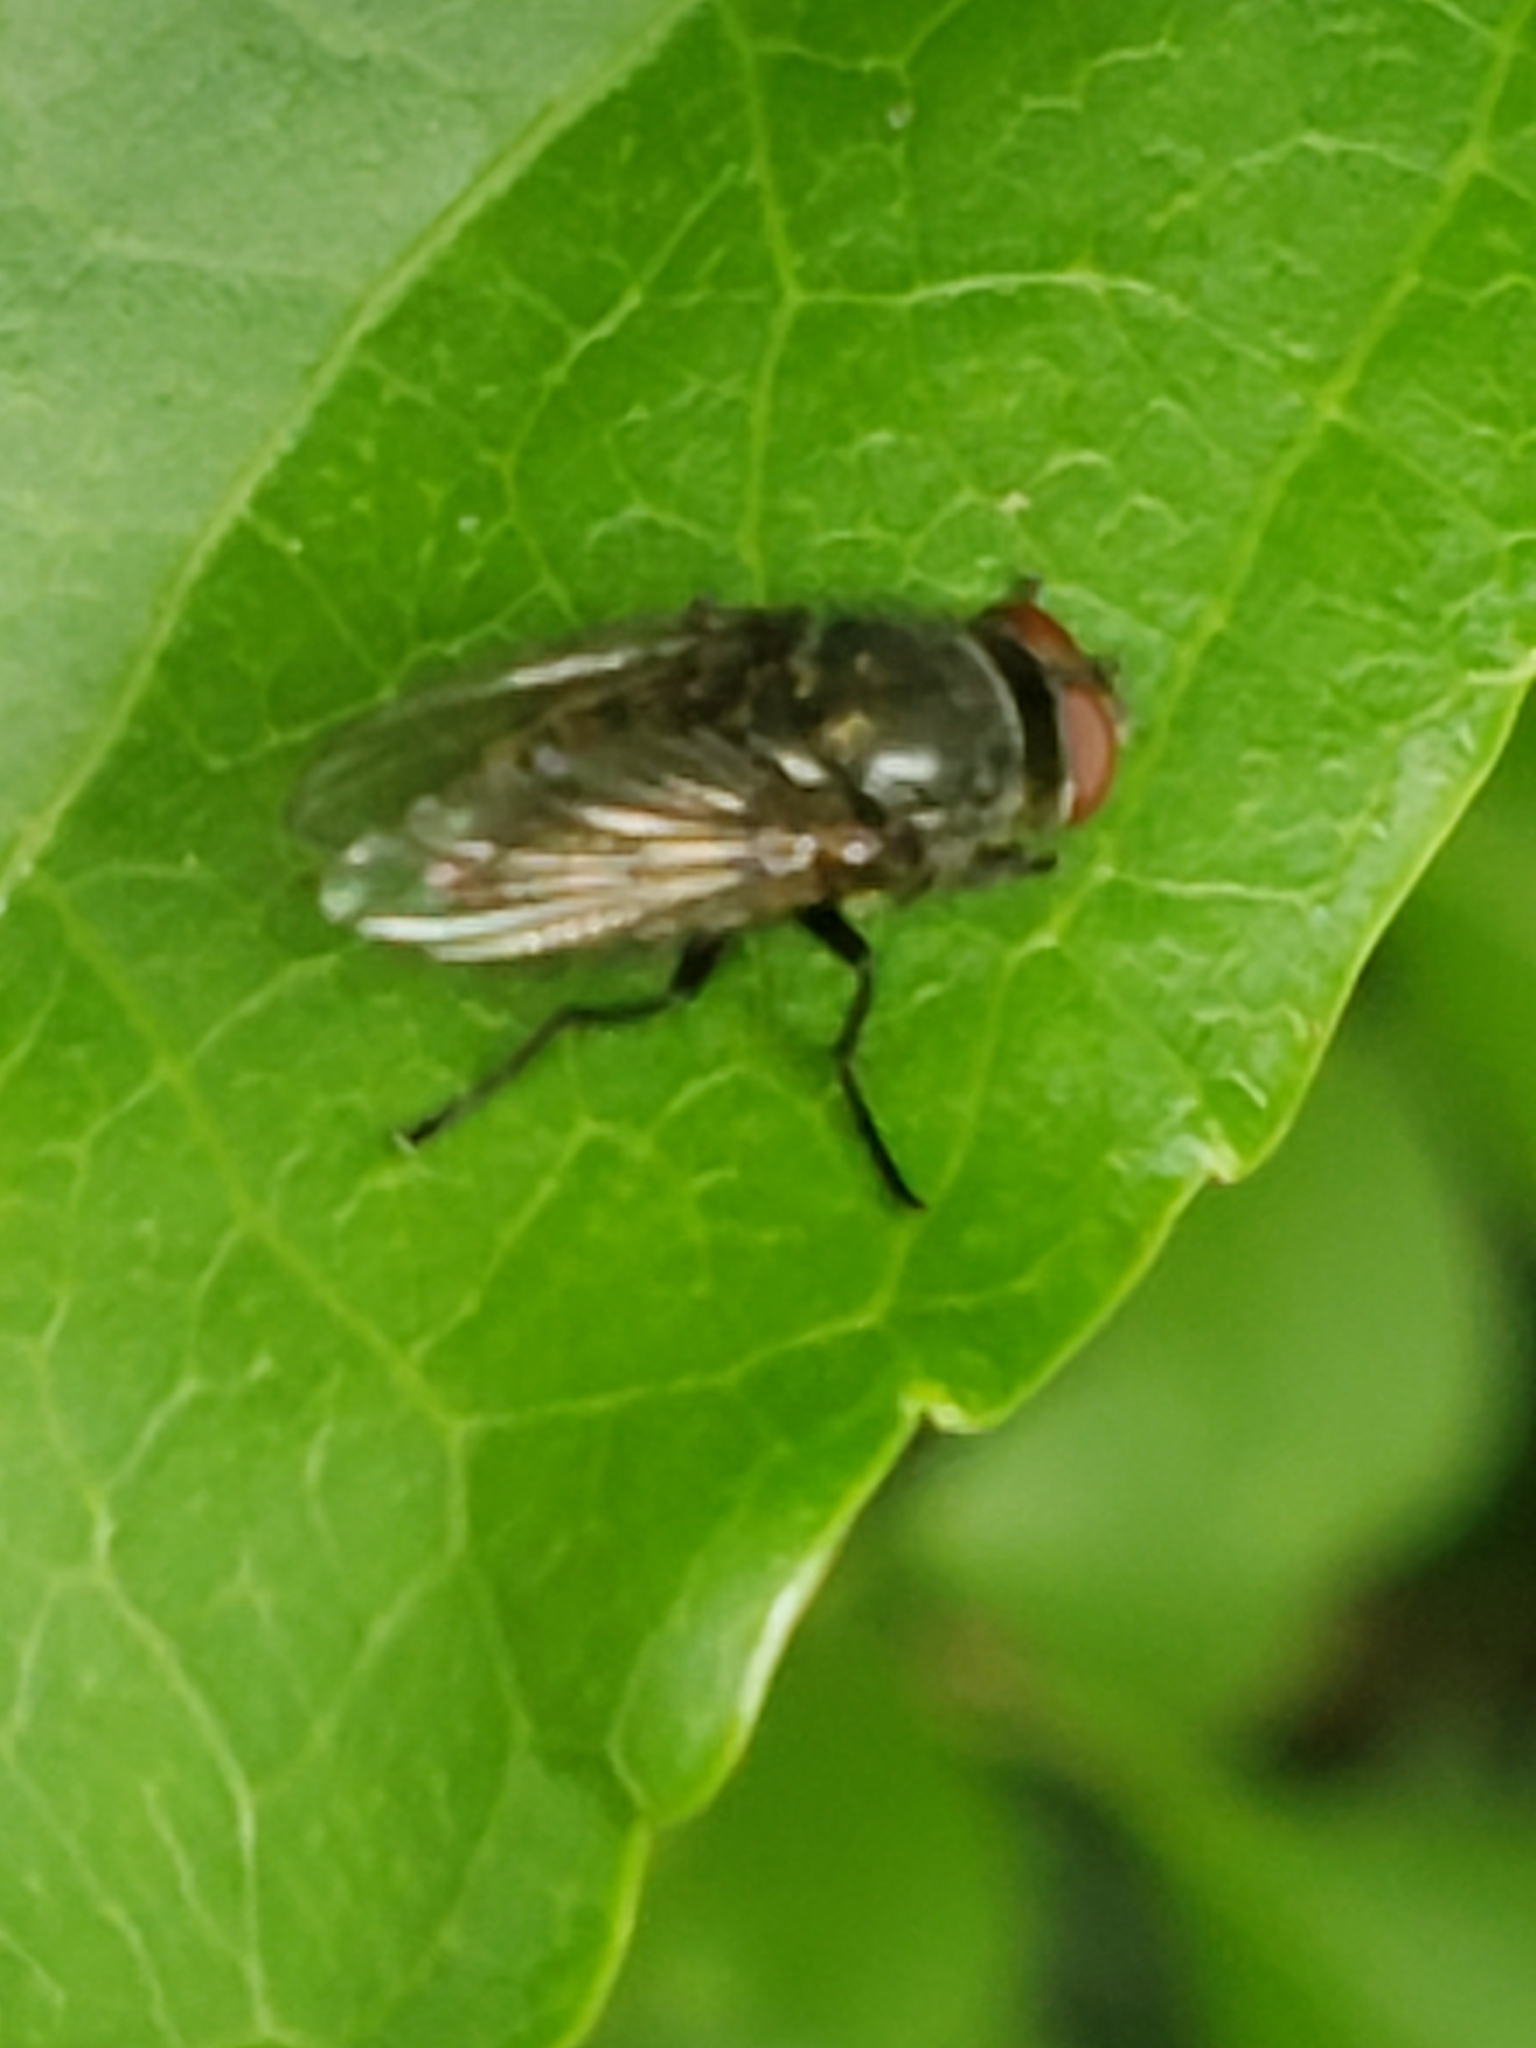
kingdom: Animalia
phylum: Arthropoda
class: Insecta
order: Diptera
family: Calliphoridae
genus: Phormia
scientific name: Phormia regina
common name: Black blow fly
